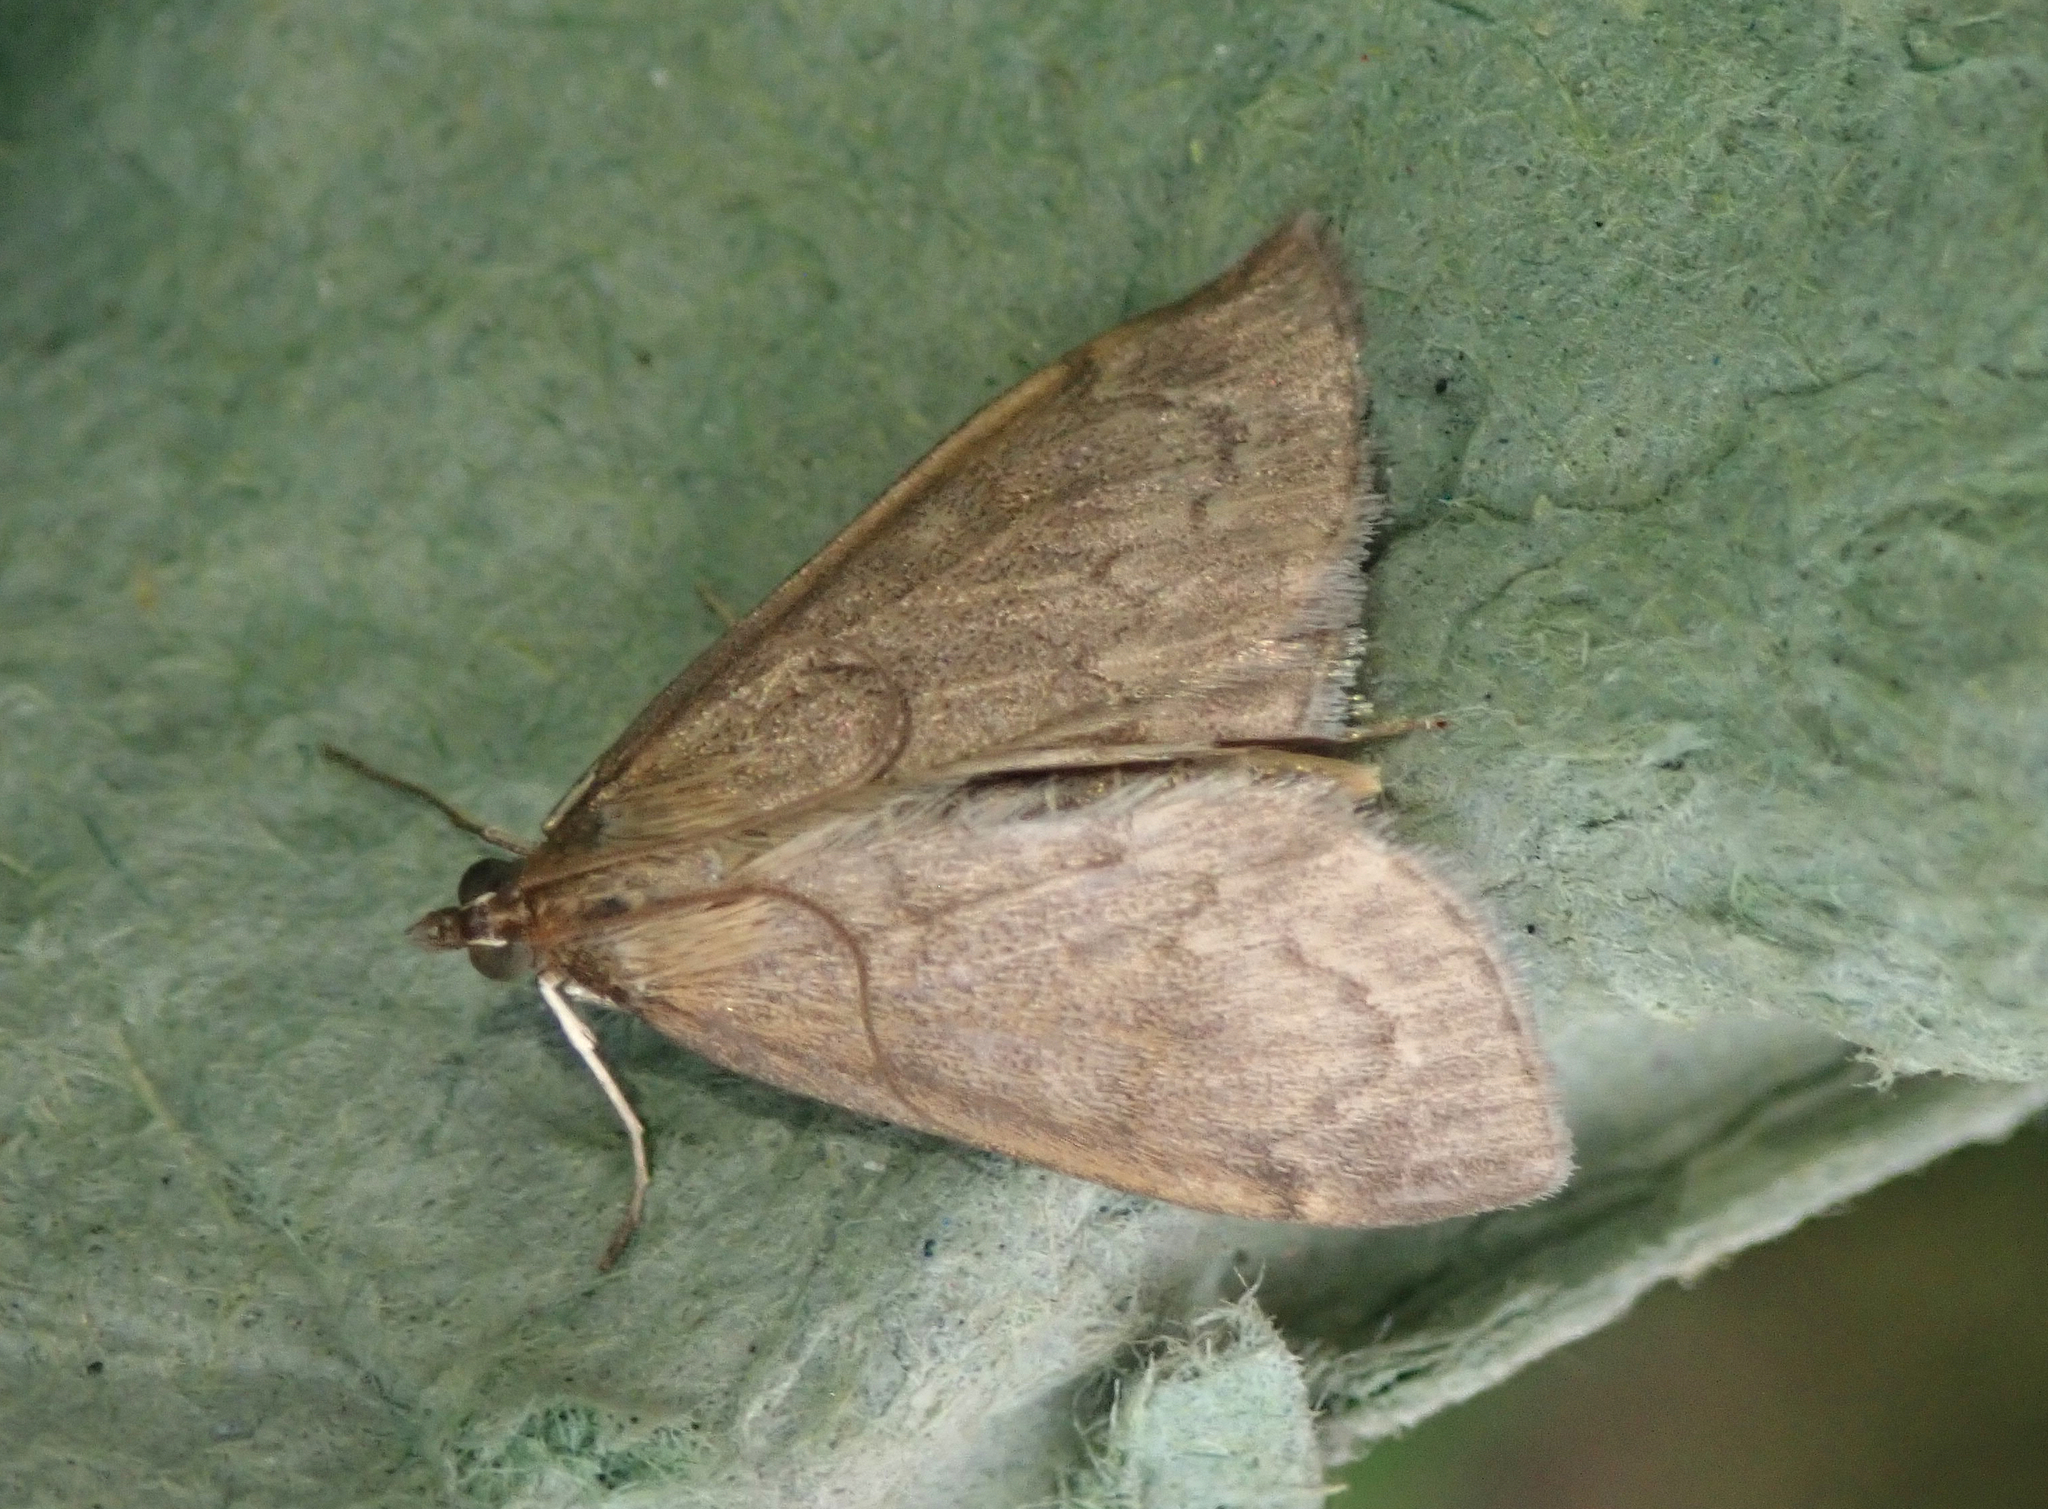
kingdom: Animalia
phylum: Arthropoda
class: Insecta
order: Lepidoptera
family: Crambidae
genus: Anania
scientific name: Anania fuscalis
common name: Cinerous pearl
